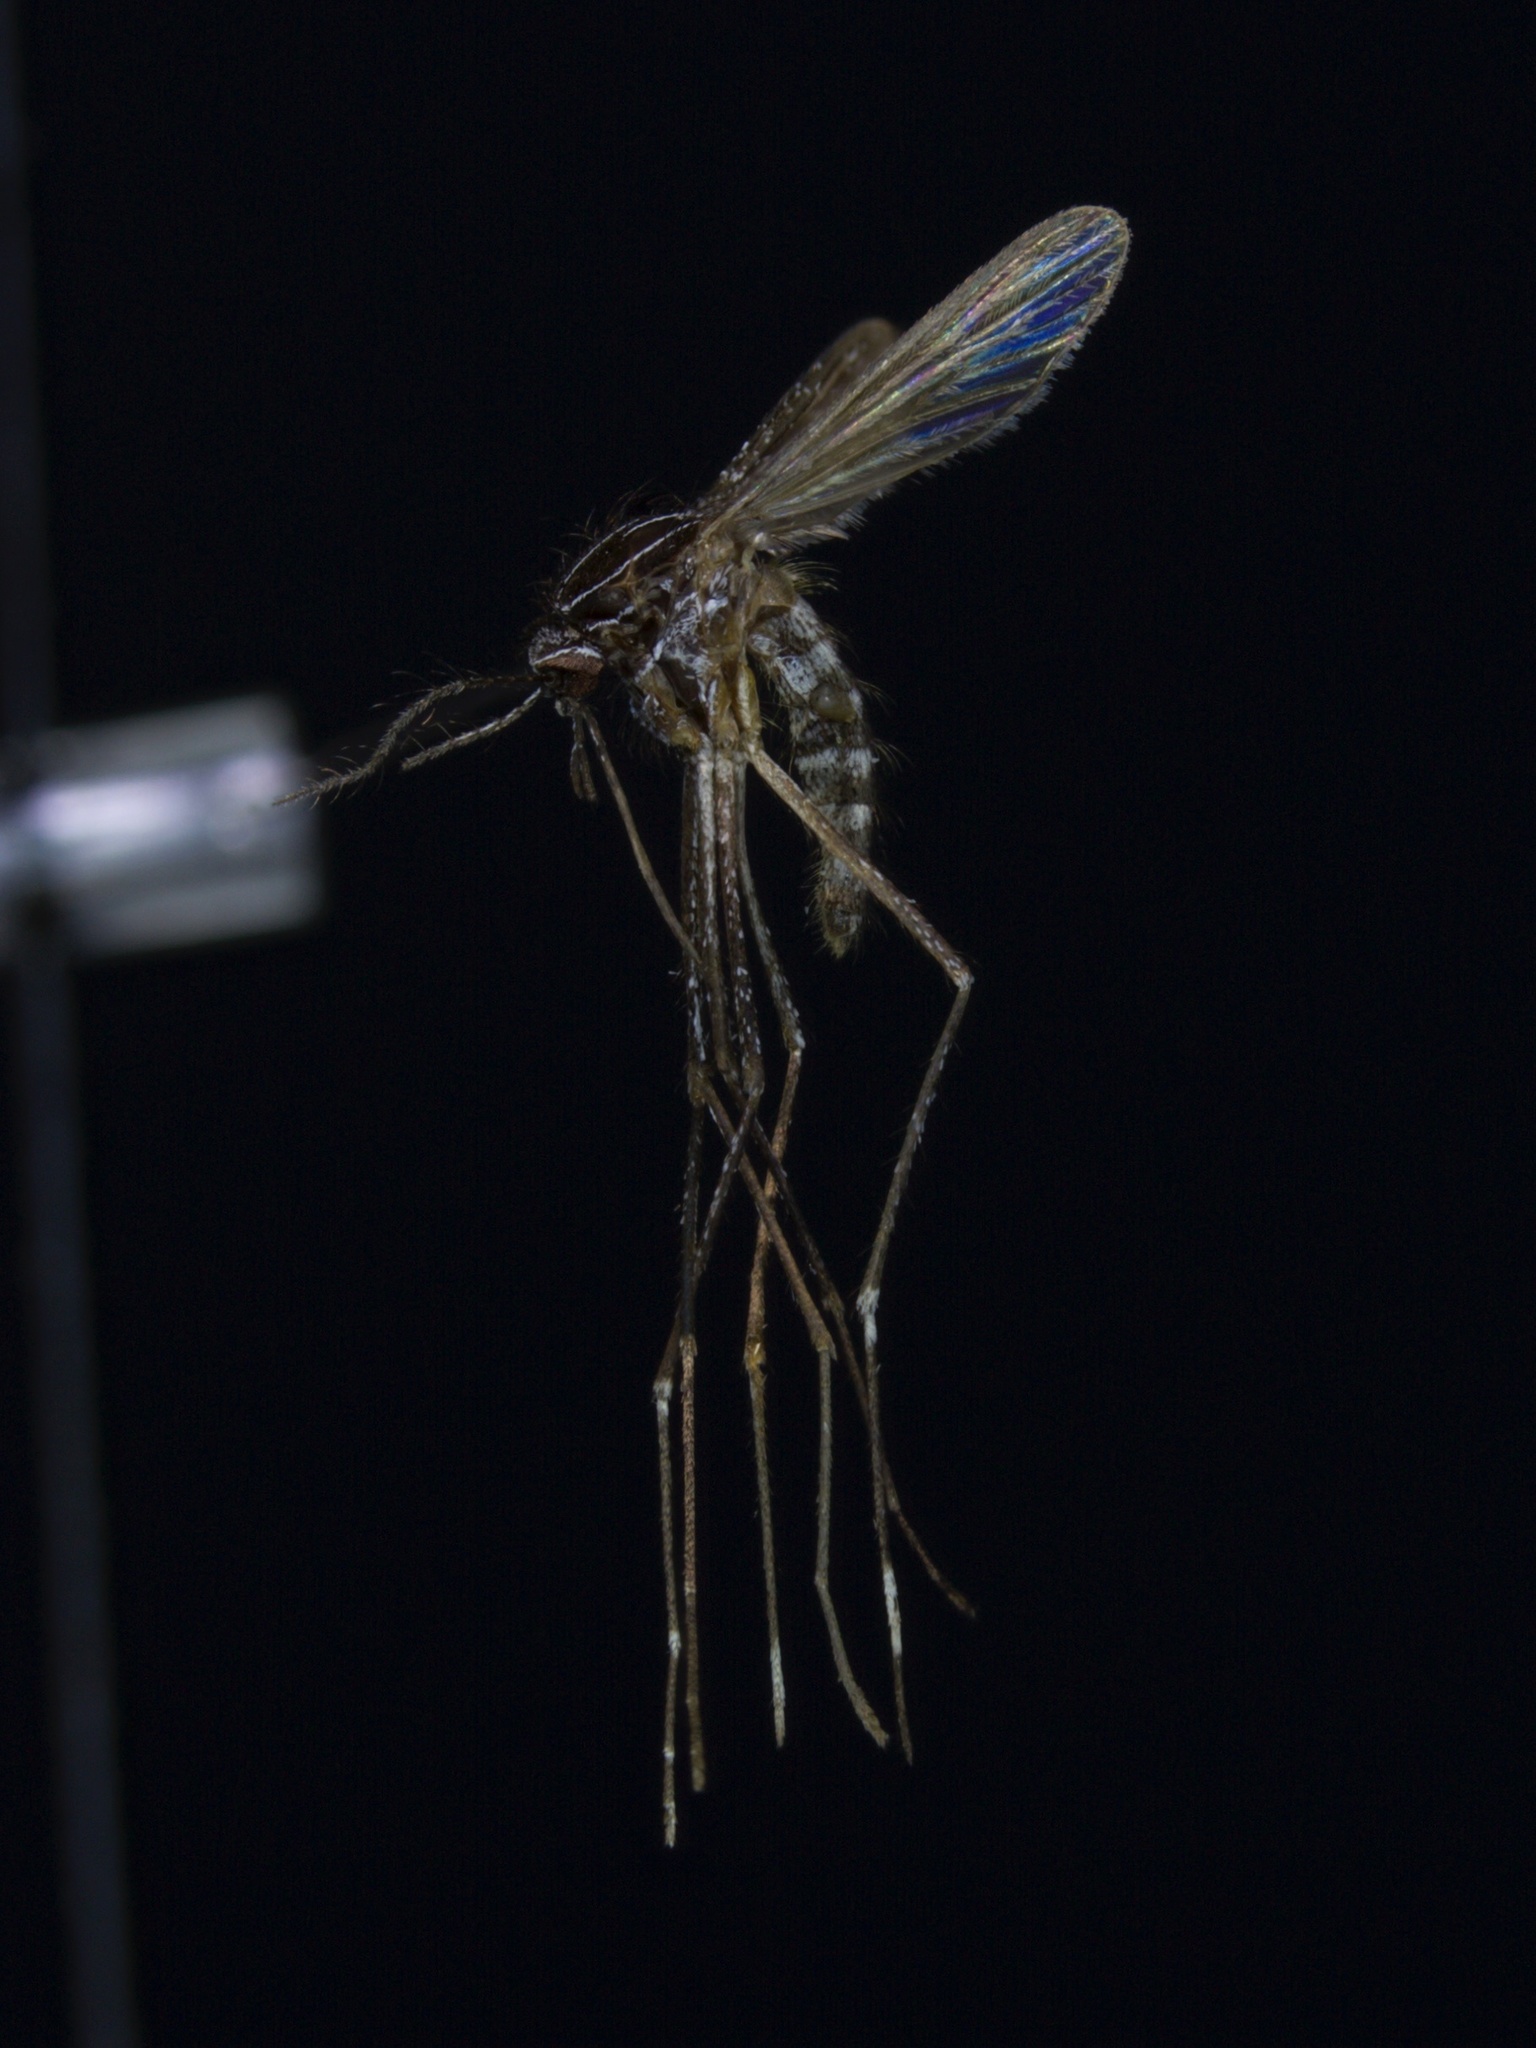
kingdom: Animalia
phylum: Arthropoda
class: Insecta
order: Diptera
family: Culicidae
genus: Orthopodomyia
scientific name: Orthopodomyia signifera
